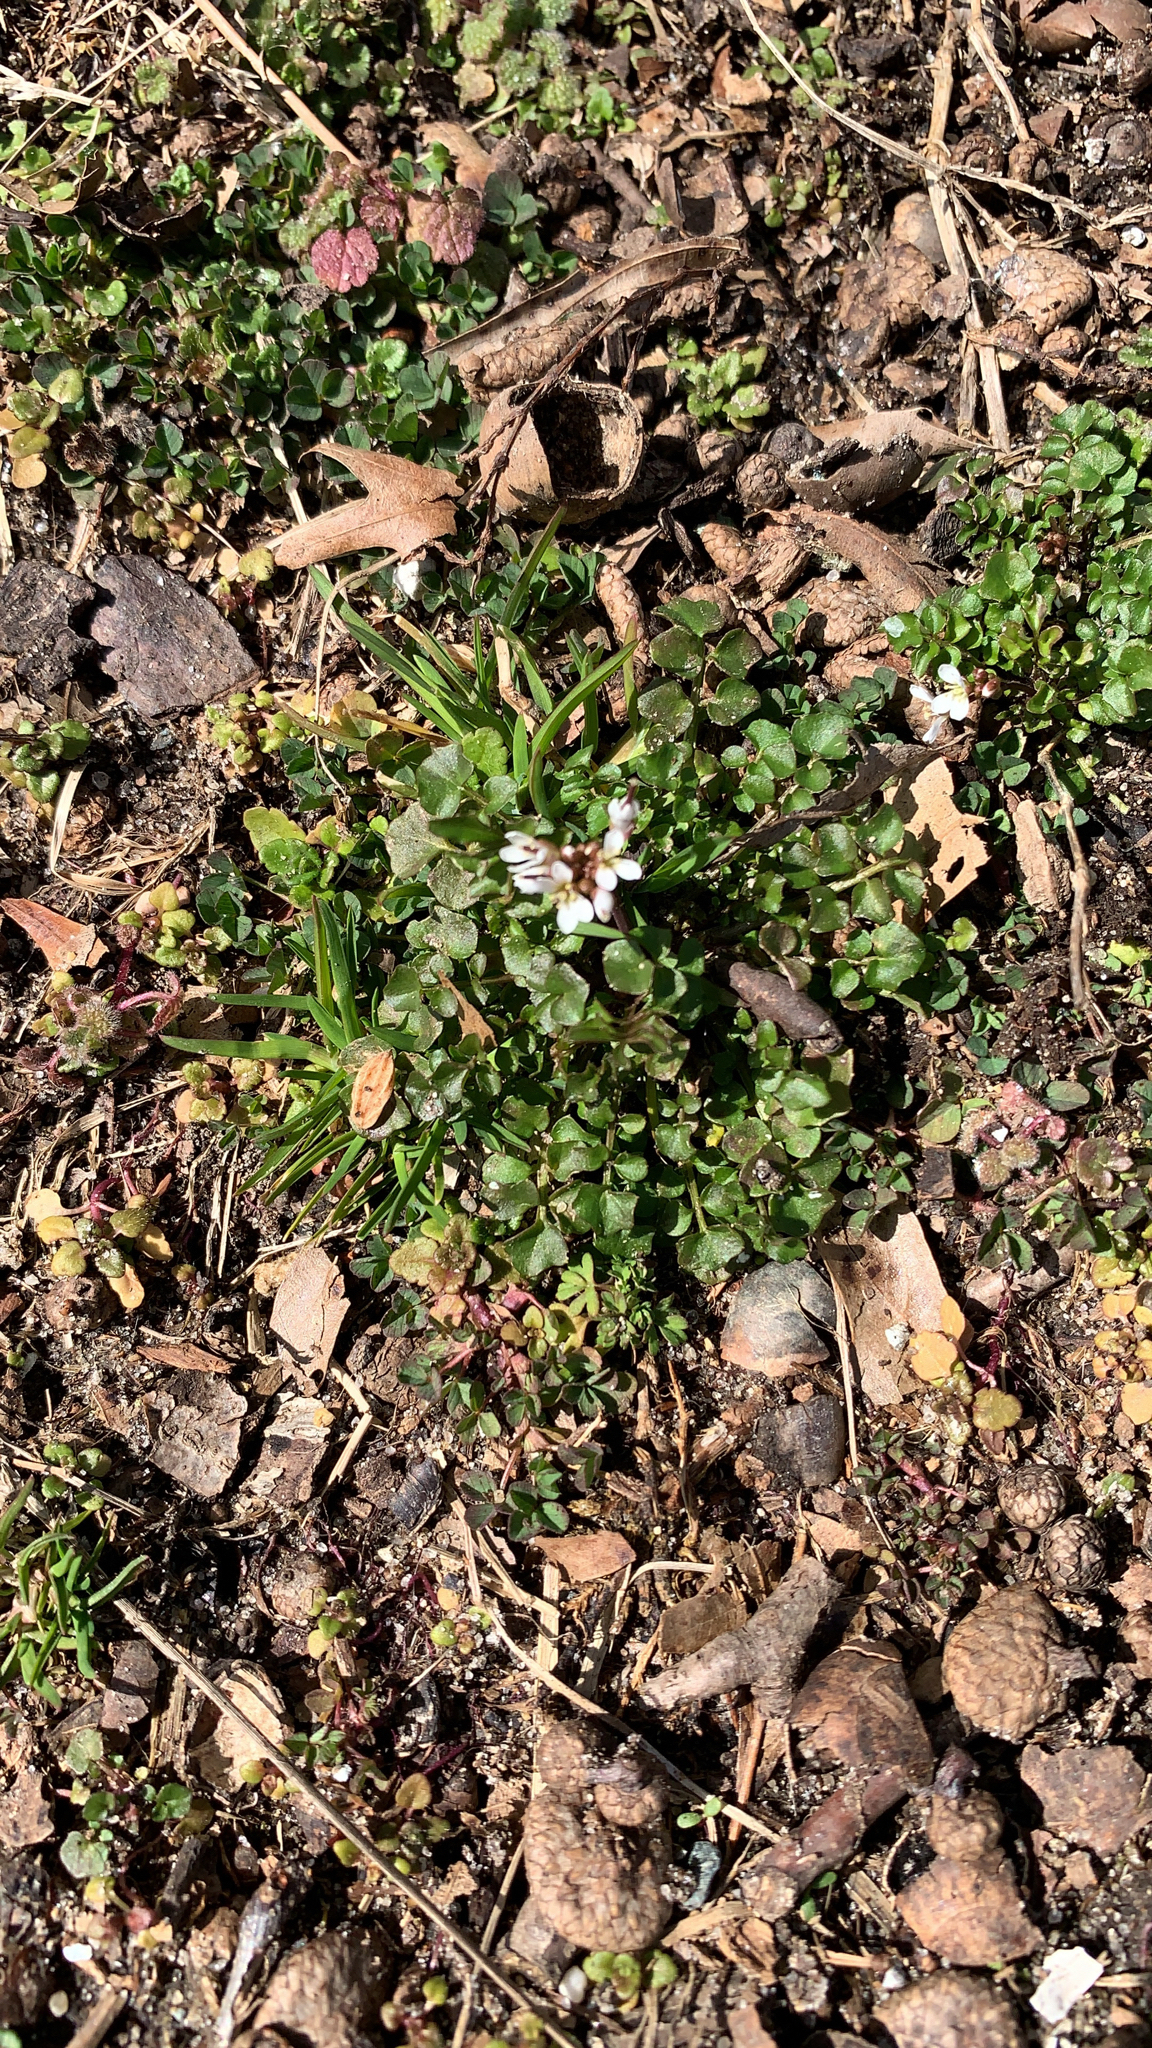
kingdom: Plantae
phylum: Tracheophyta
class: Magnoliopsida
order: Brassicales
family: Brassicaceae
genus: Cardamine
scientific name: Cardamine hirsuta
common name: Hairy bittercress
